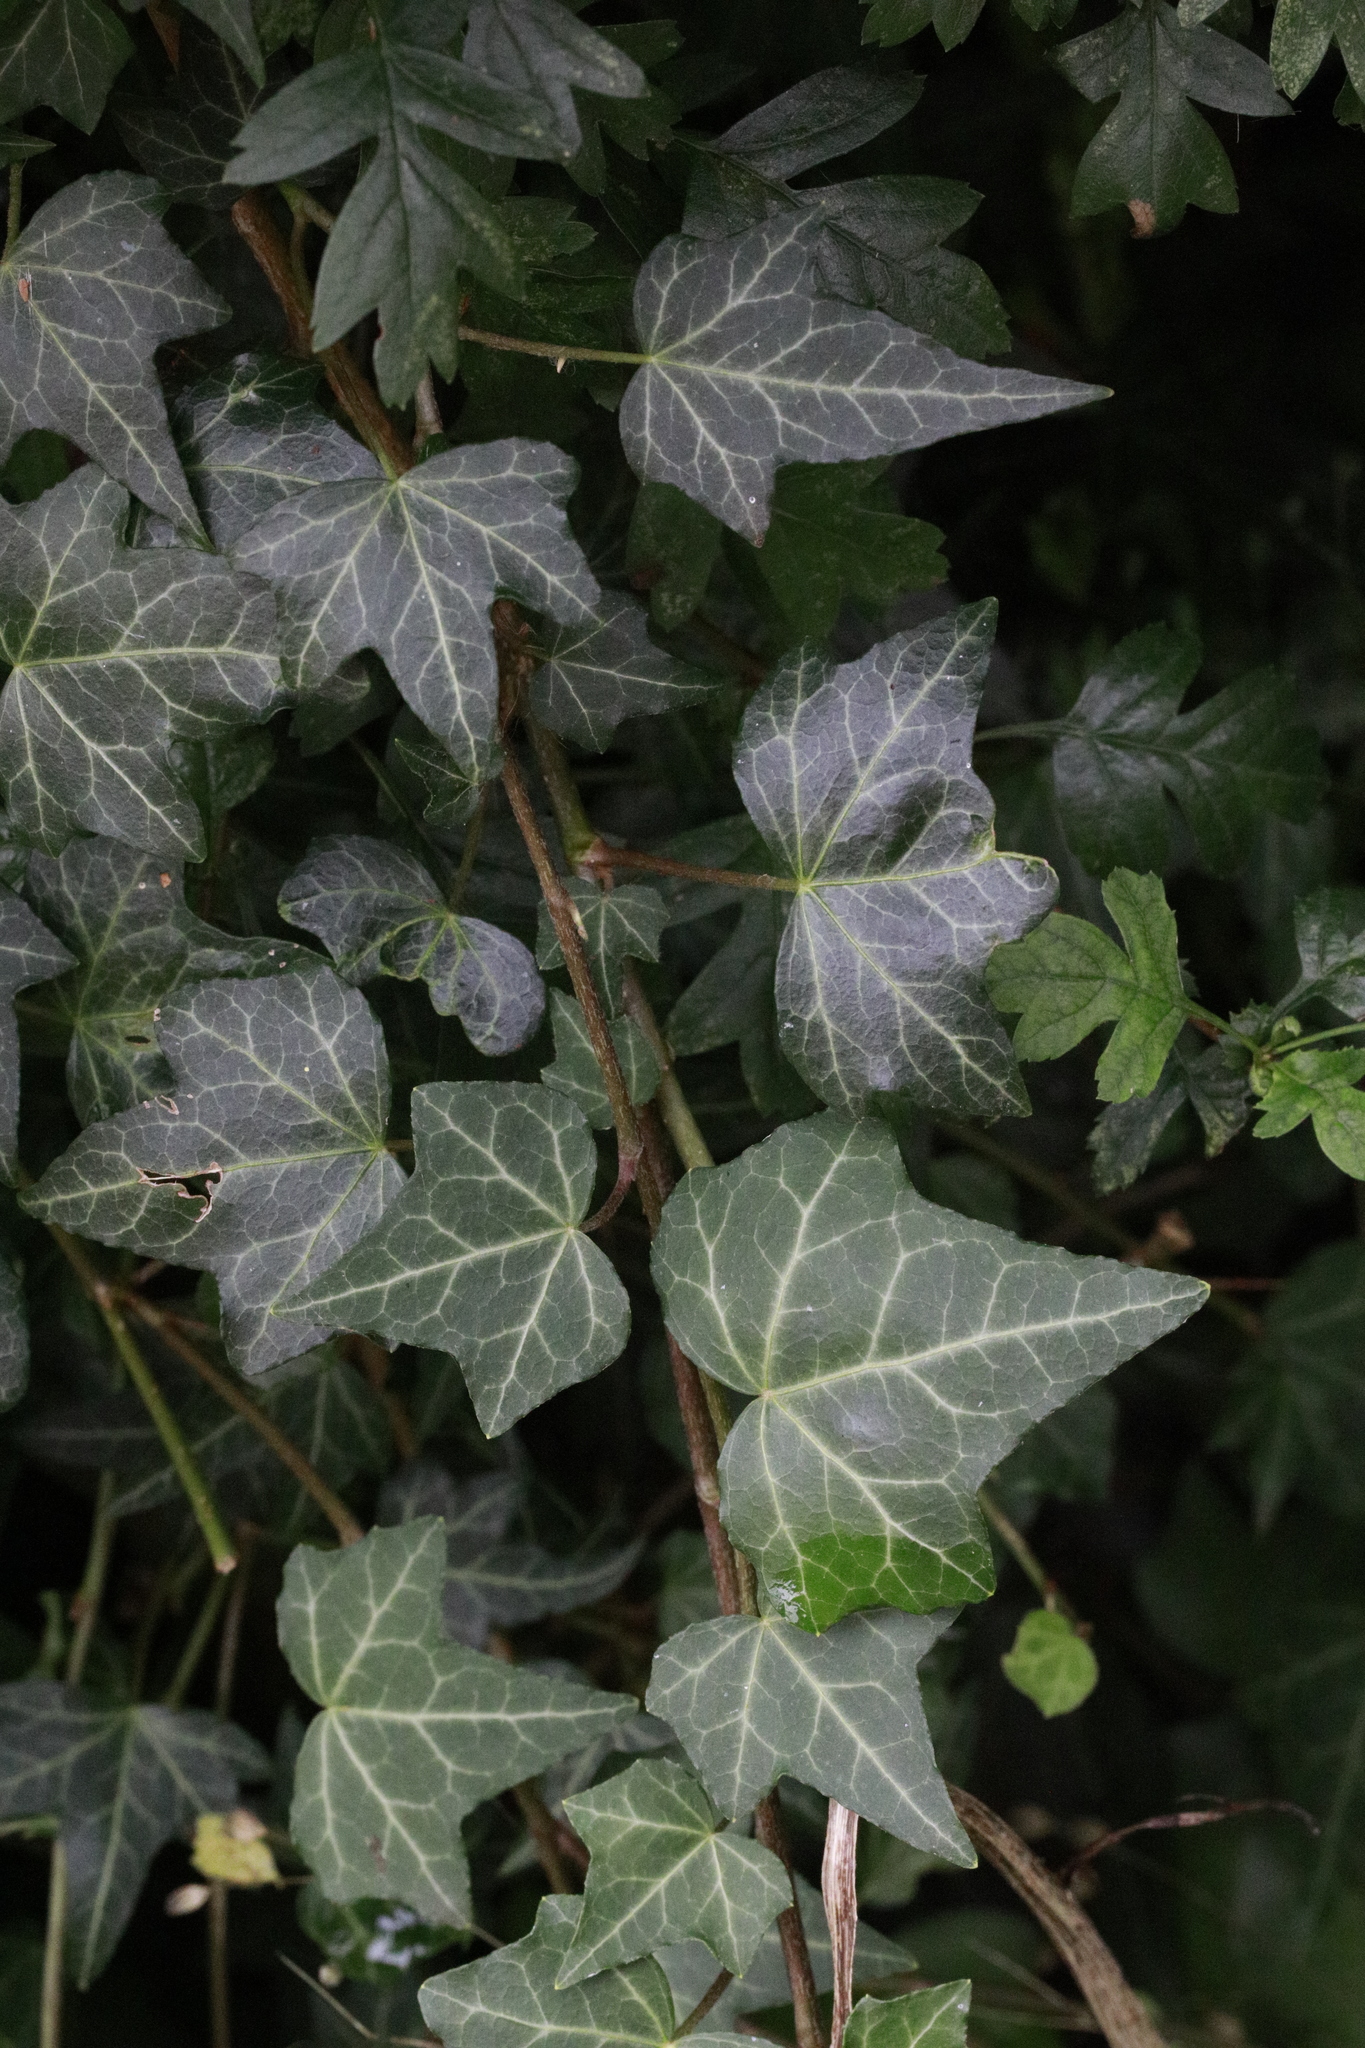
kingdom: Plantae
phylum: Tracheophyta
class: Magnoliopsida
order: Apiales
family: Araliaceae
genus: Hedera
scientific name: Hedera helix
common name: Ivy
